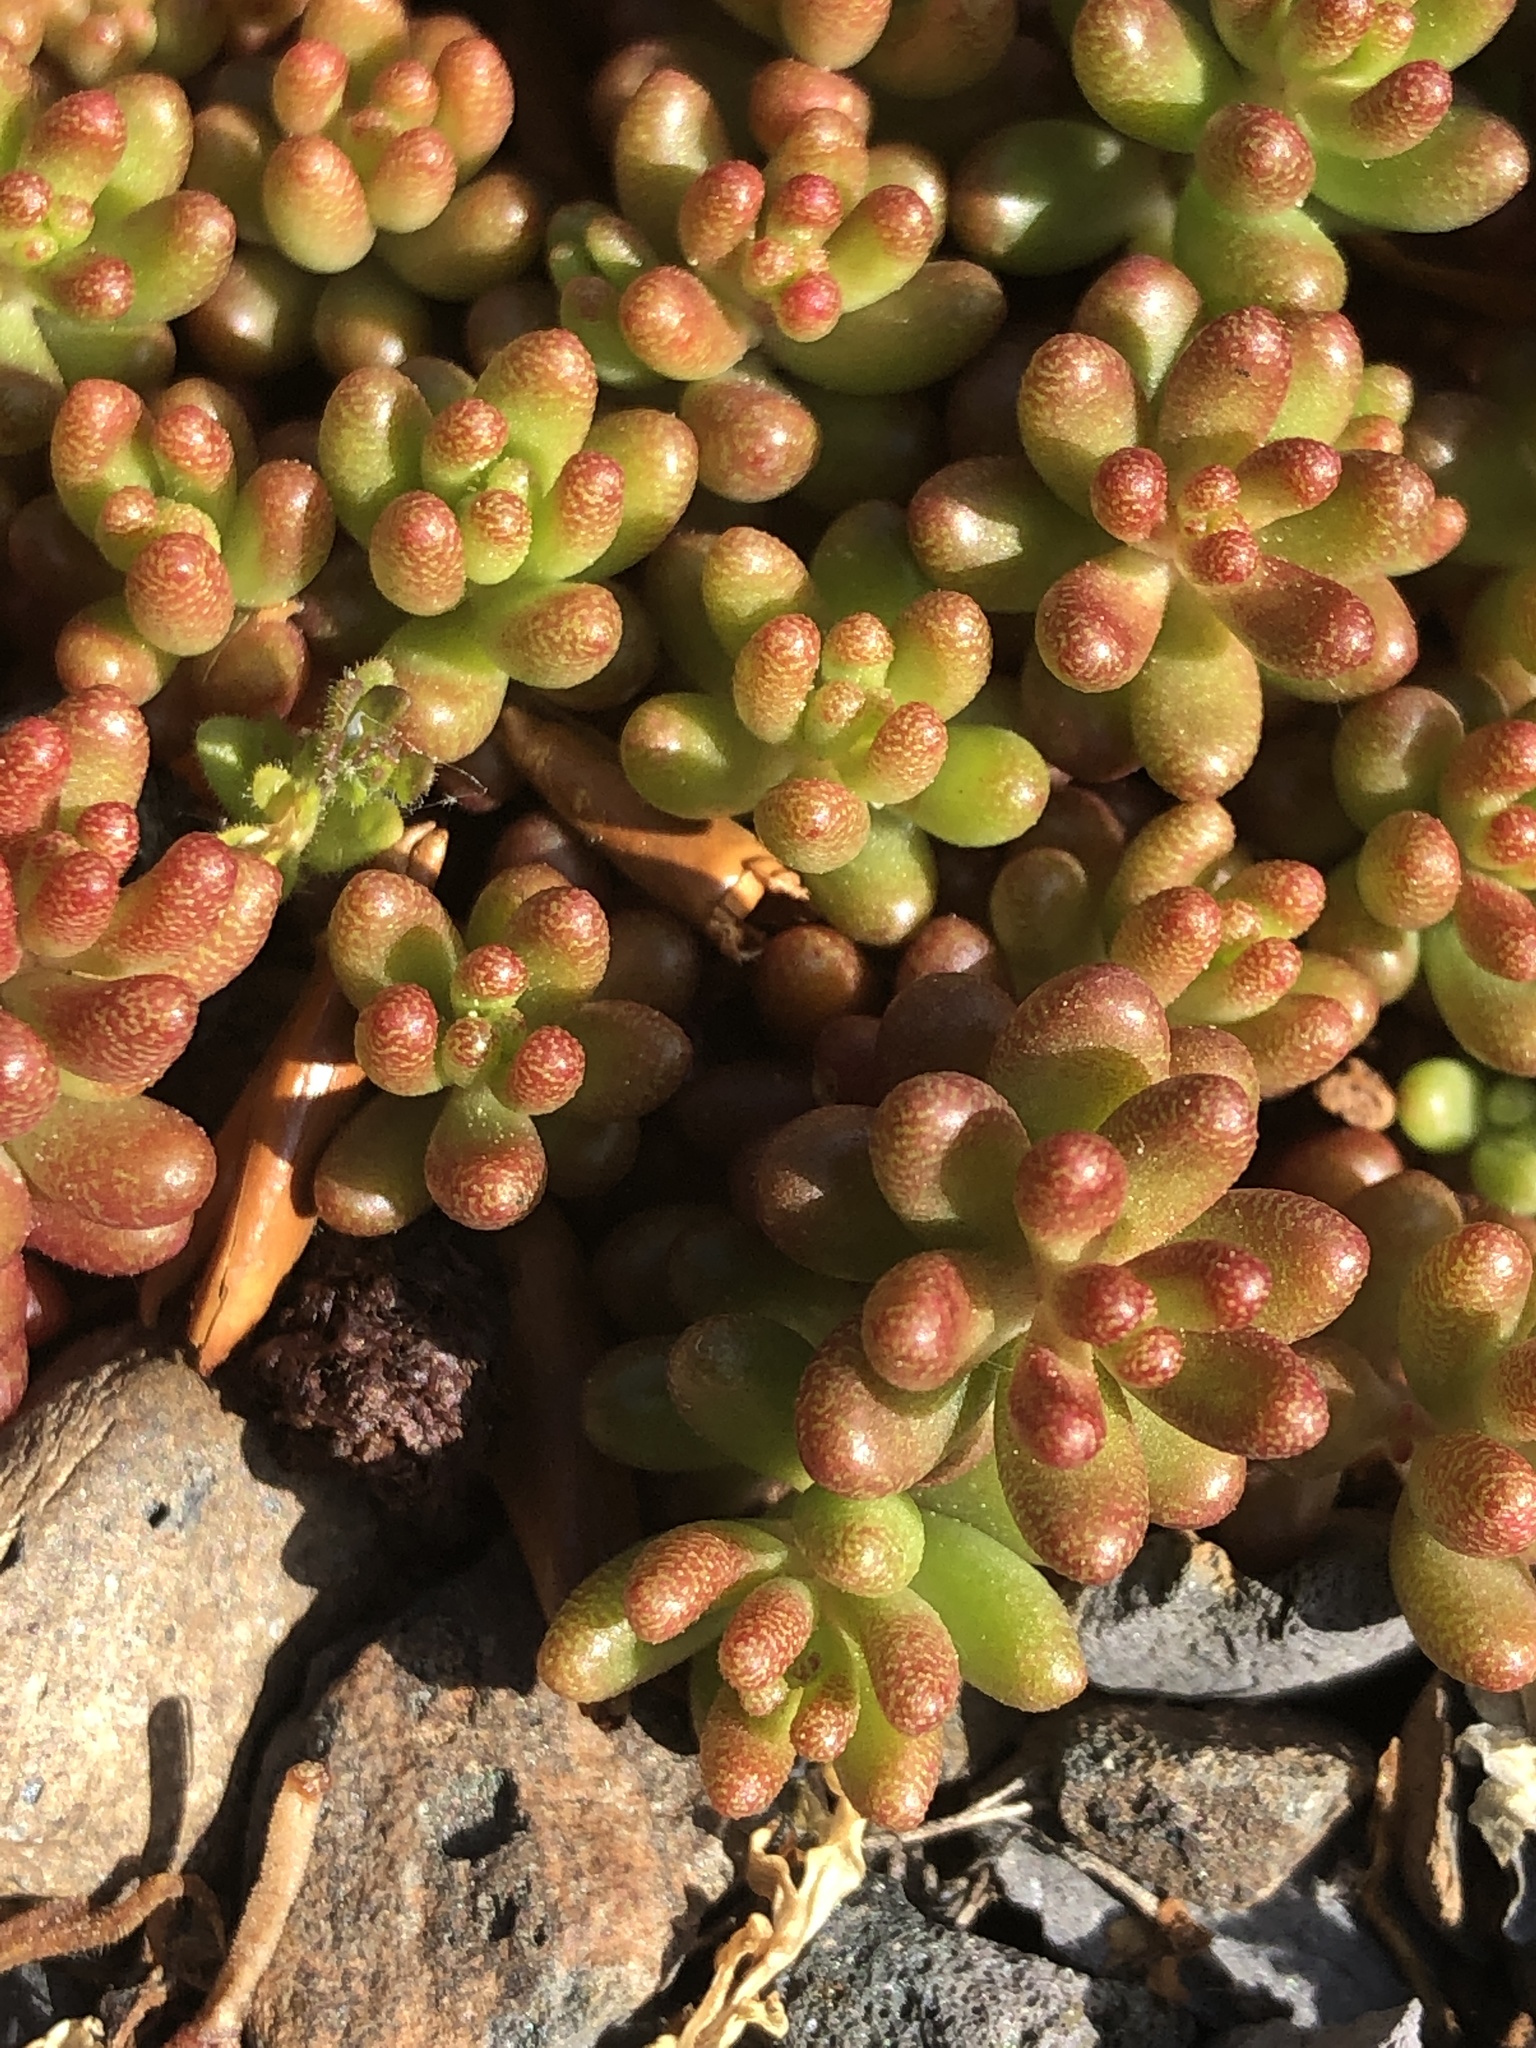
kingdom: Plantae
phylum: Tracheophyta
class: Magnoliopsida
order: Saxifragales
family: Crassulaceae
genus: Sedum
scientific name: Sedum album
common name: White stonecrop
